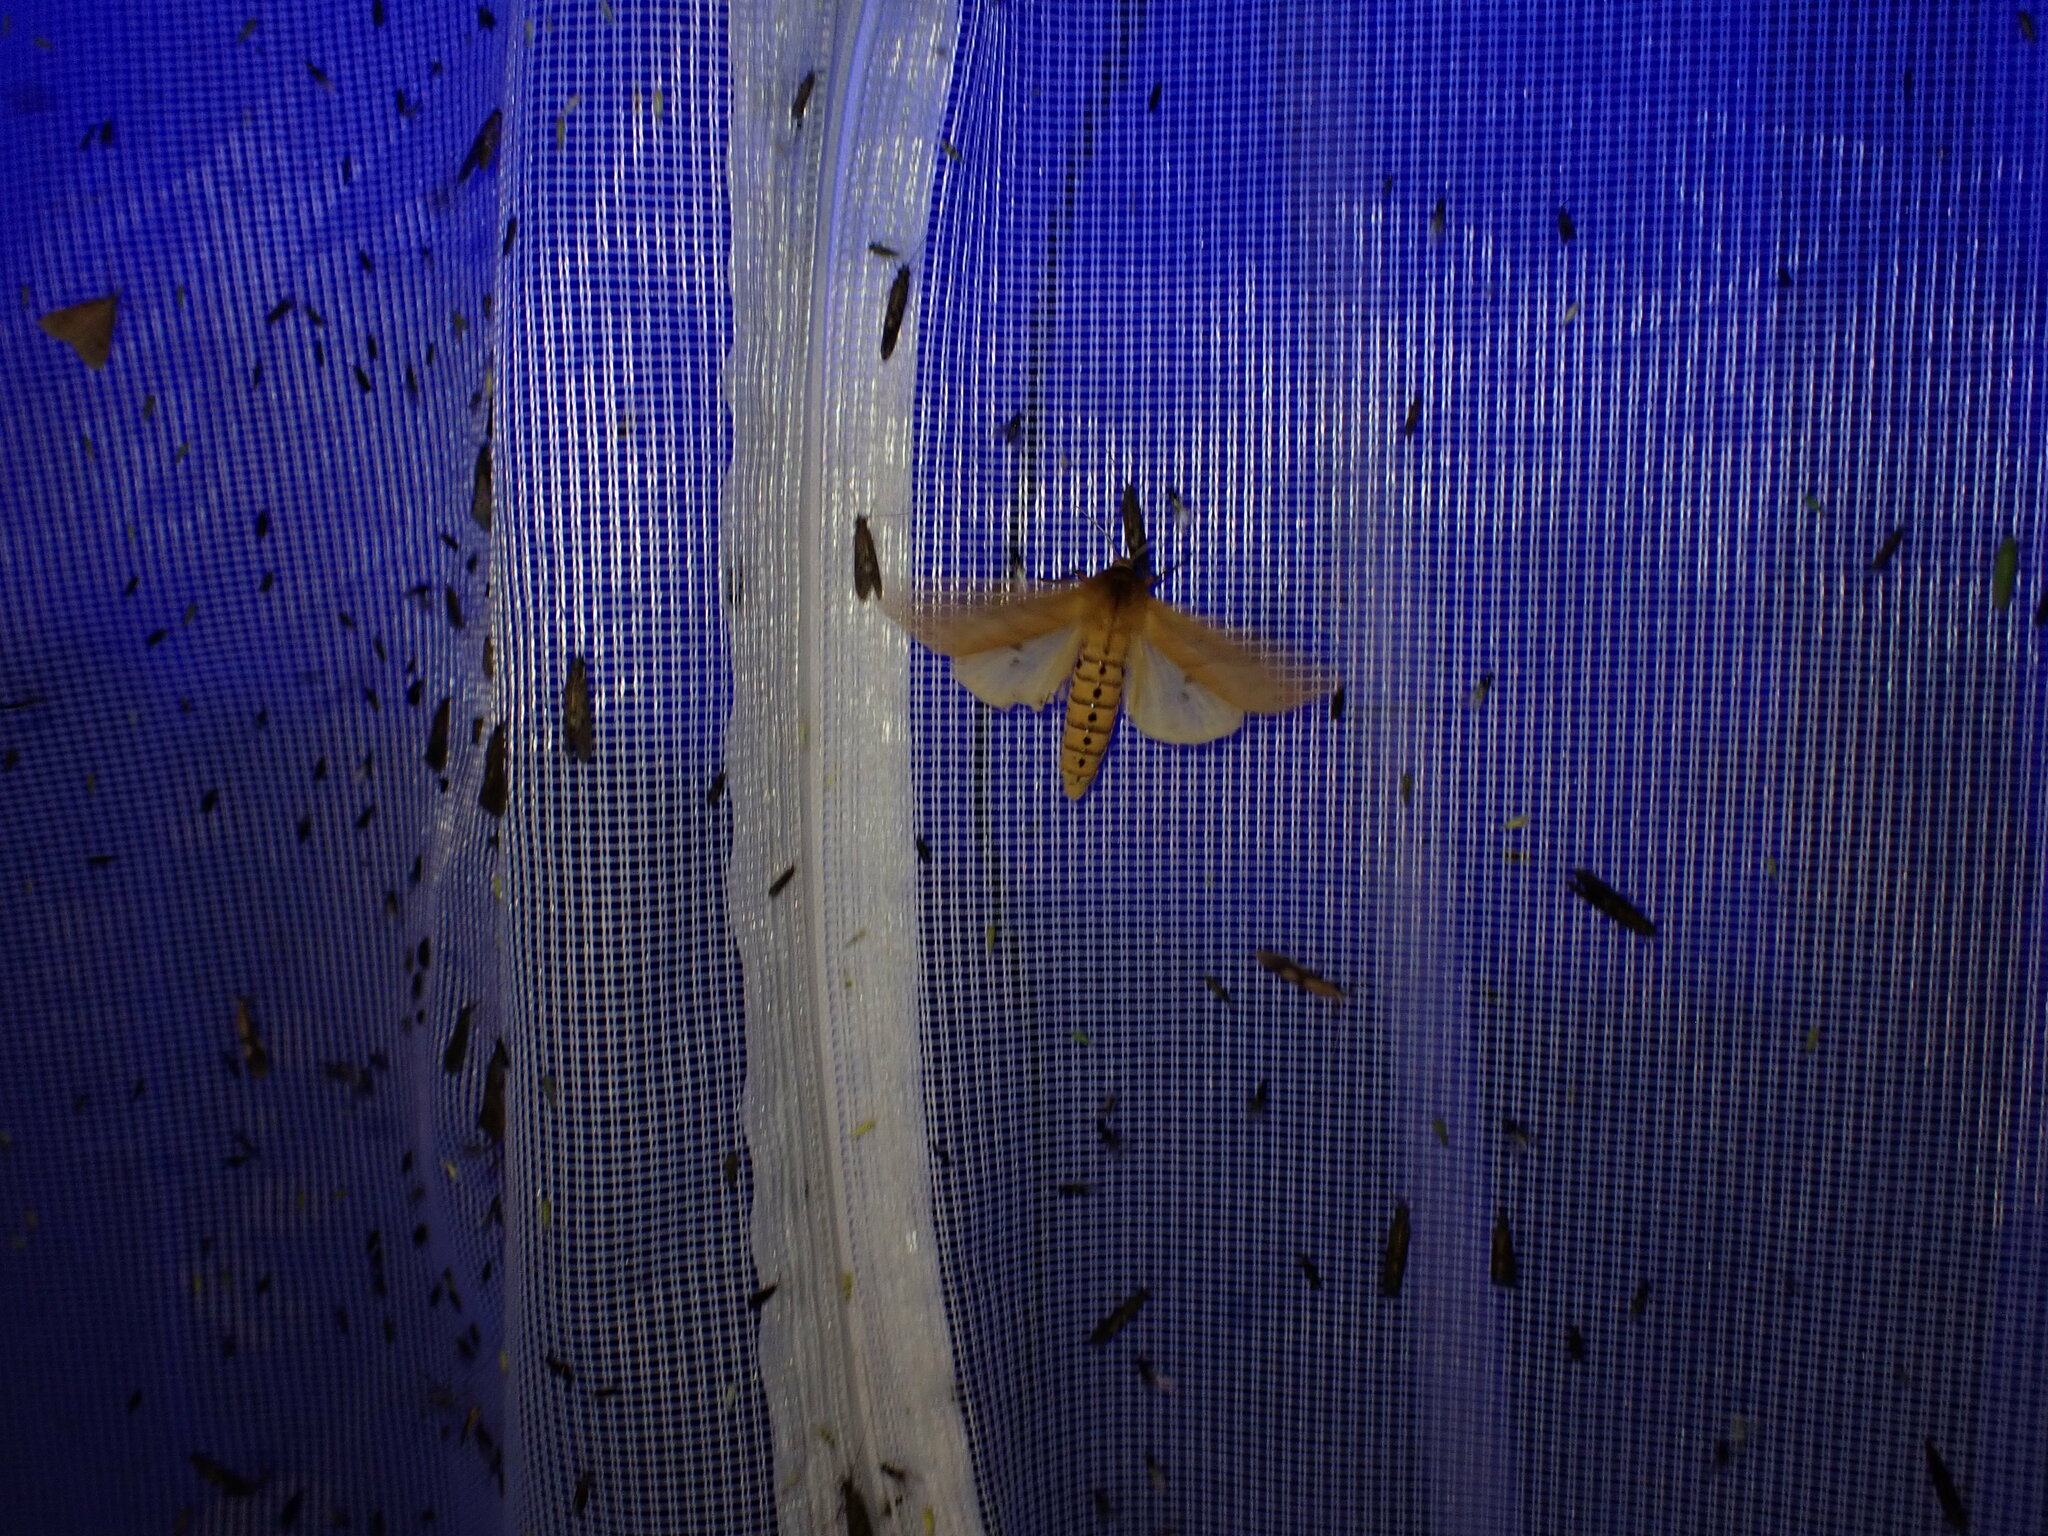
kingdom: Animalia
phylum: Arthropoda
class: Insecta
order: Lepidoptera
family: Erebidae
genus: Pyrrharctia
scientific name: Pyrrharctia isabella
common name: Isabella tiger moth
